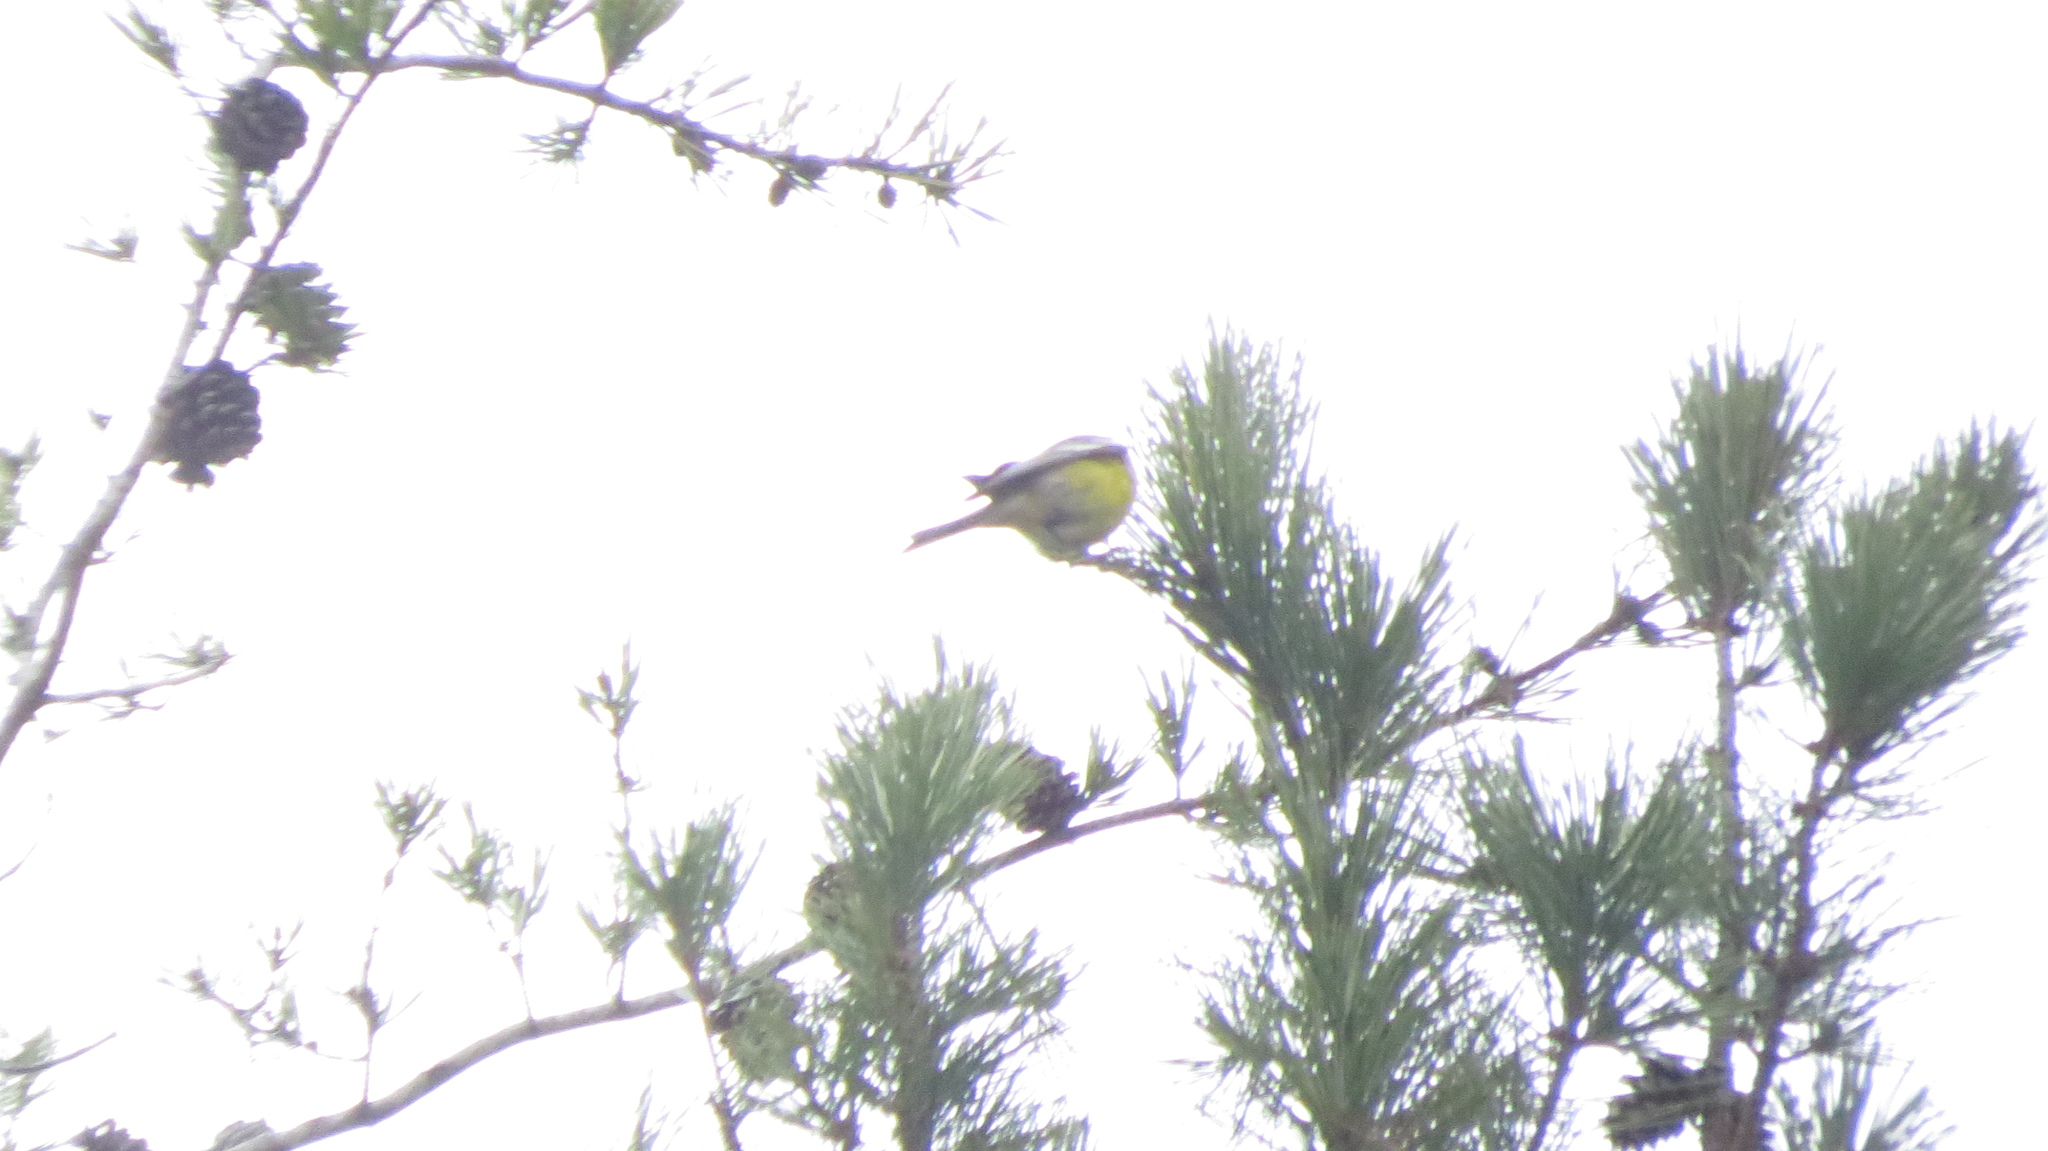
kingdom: Animalia
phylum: Chordata
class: Aves
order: Passeriformes
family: Parulidae
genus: Setophaga
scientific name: Setophaga pinus
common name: Pine warbler
